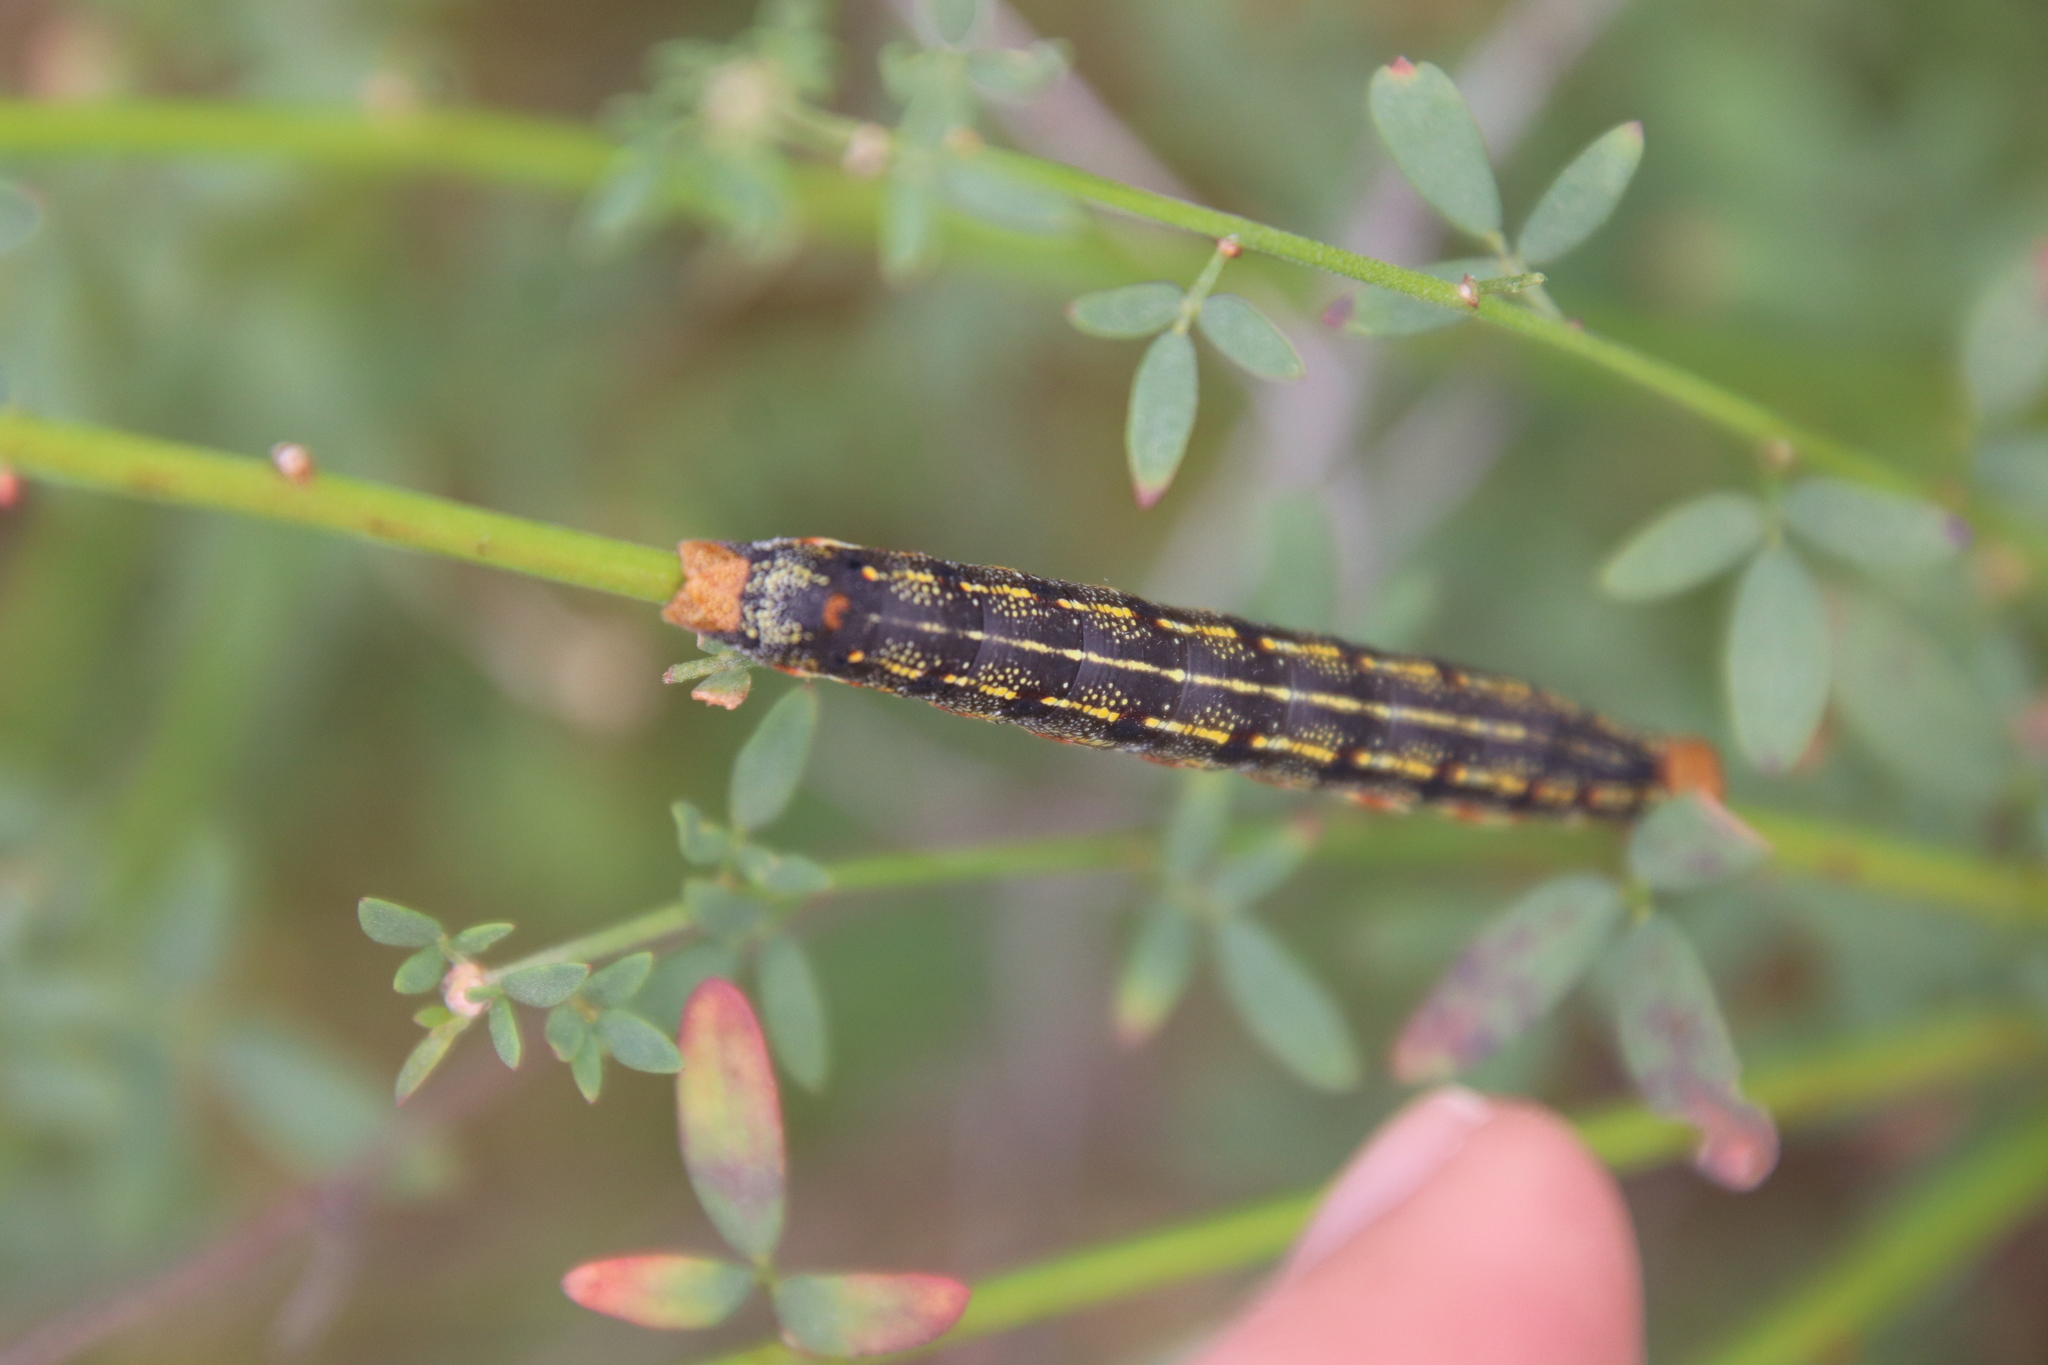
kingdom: Animalia
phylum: Arthropoda
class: Insecta
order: Lepidoptera
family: Sphingidae
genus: Hyles
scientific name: Hyles lineata
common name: White-lined sphinx
